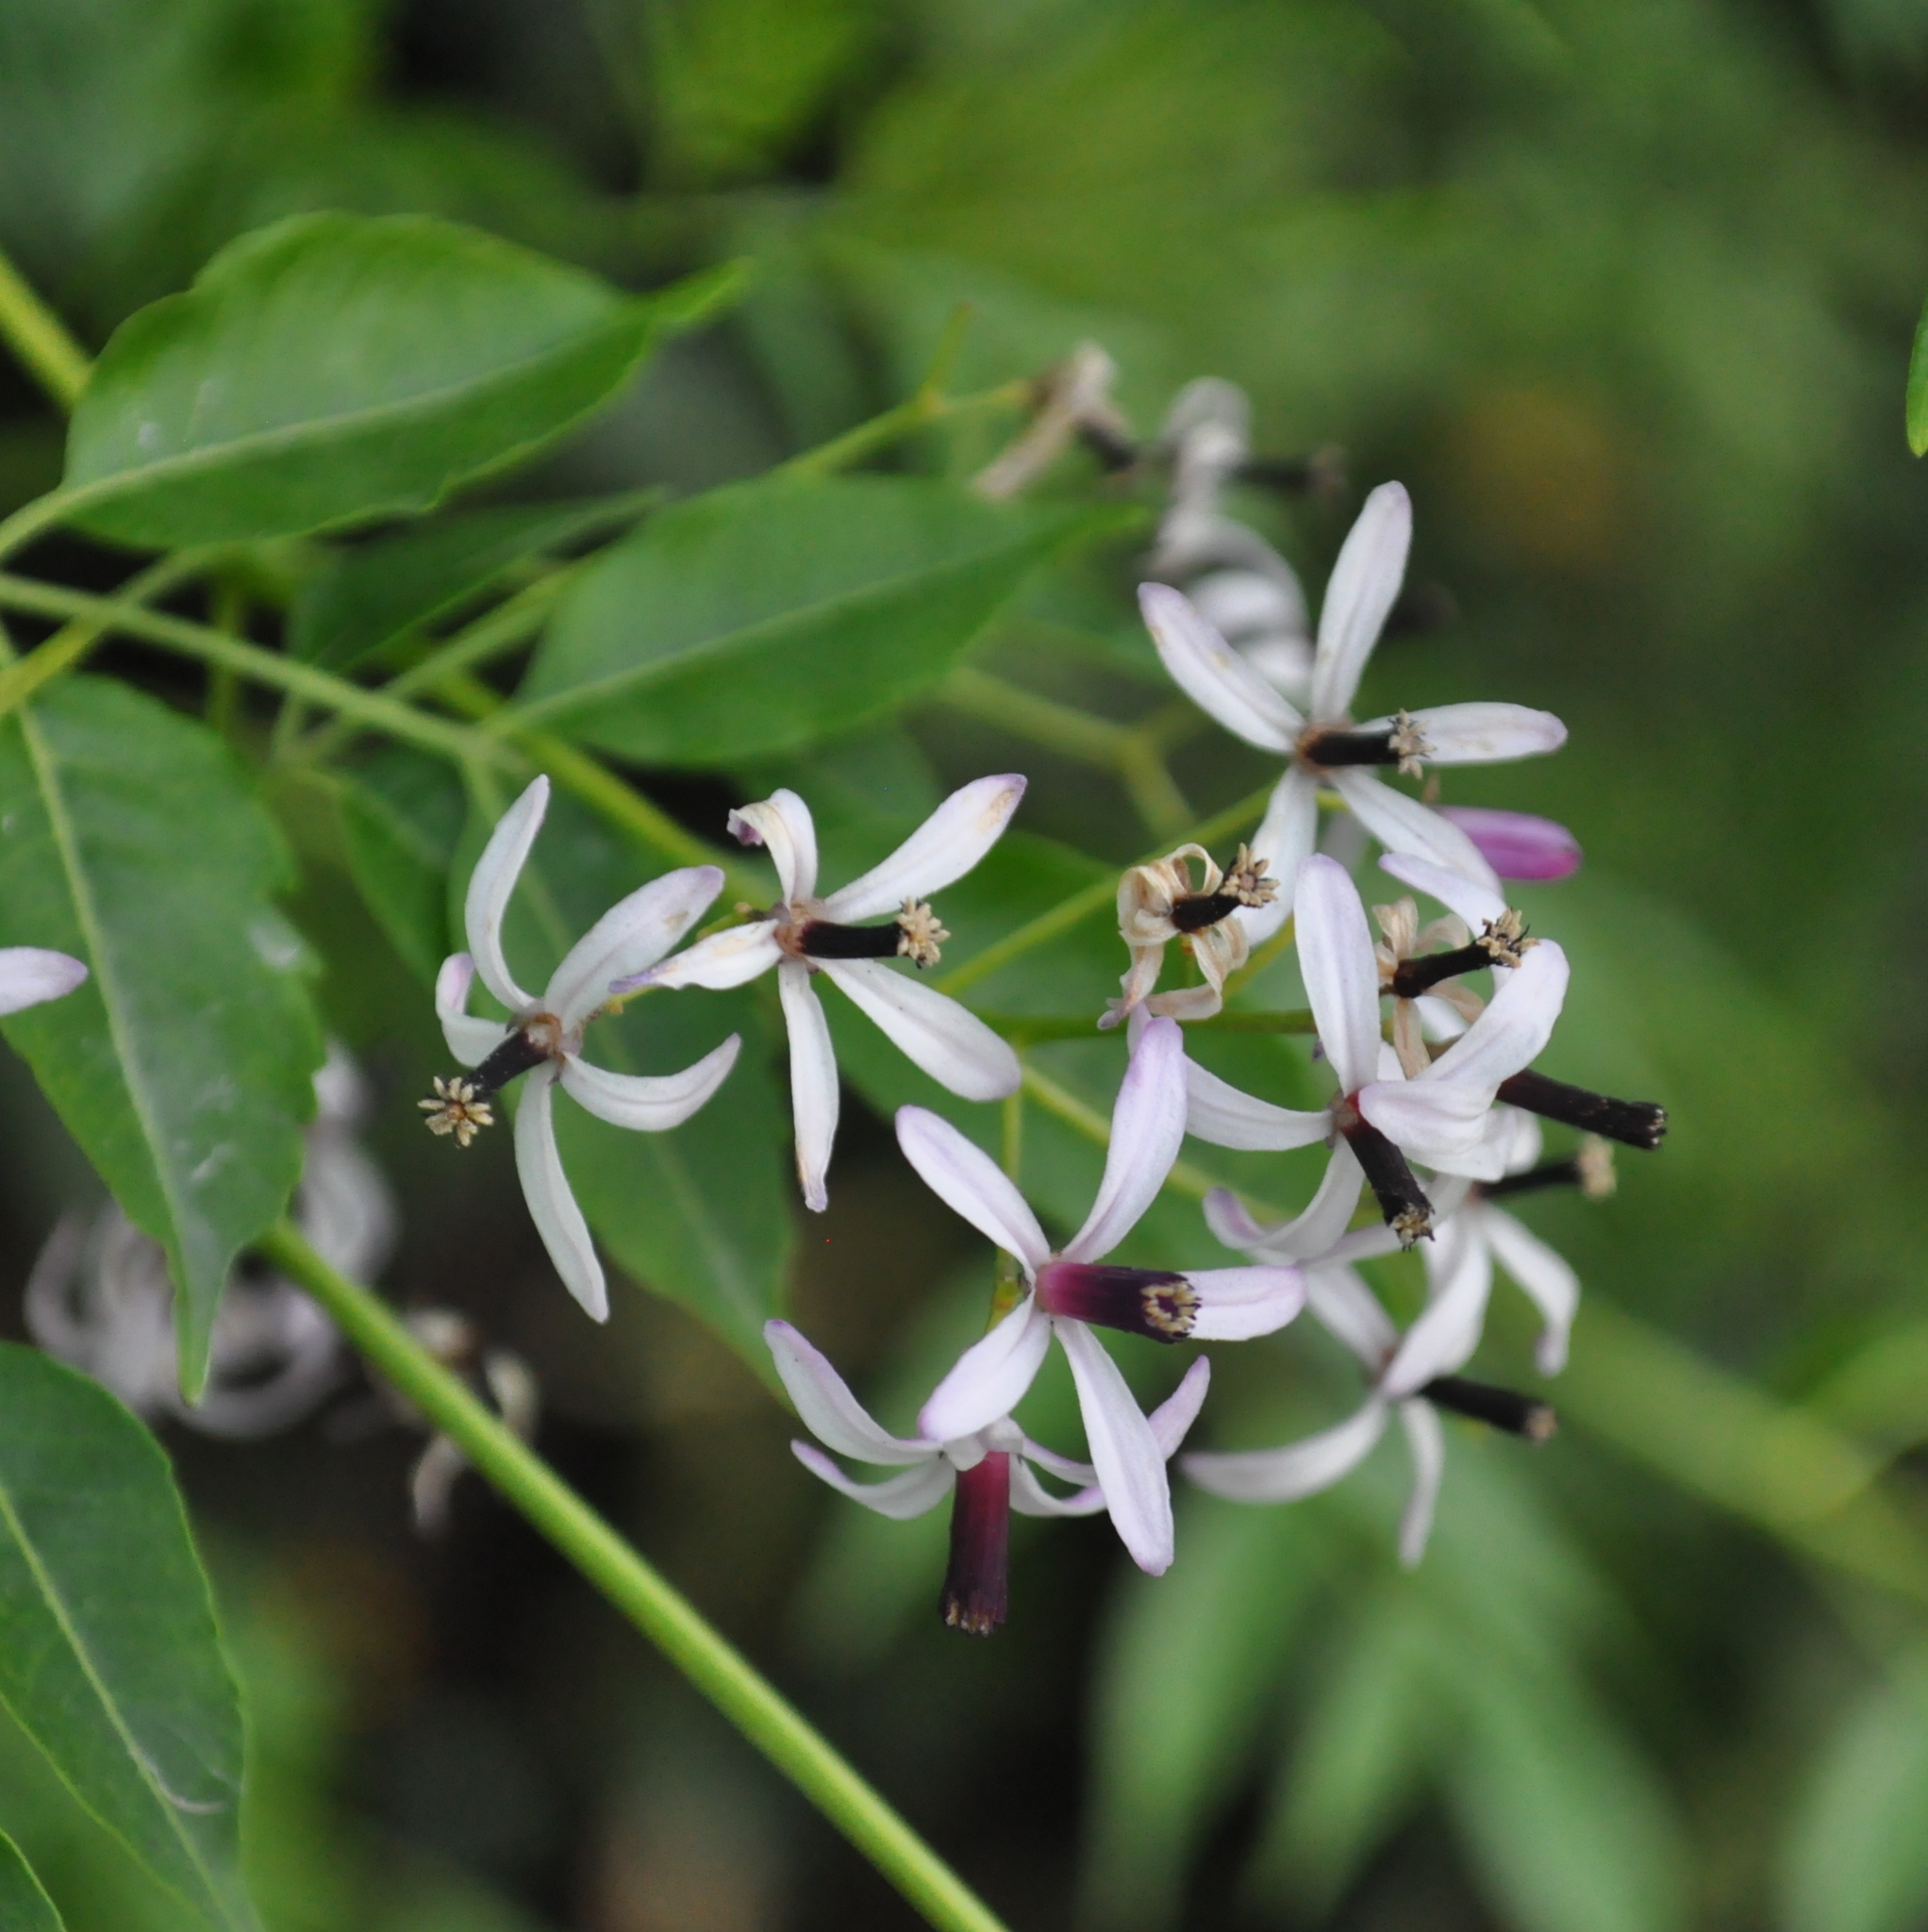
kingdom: Plantae
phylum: Tracheophyta
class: Magnoliopsida
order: Sapindales
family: Meliaceae
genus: Melia
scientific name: Melia azedarach
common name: Chinaberrytree
